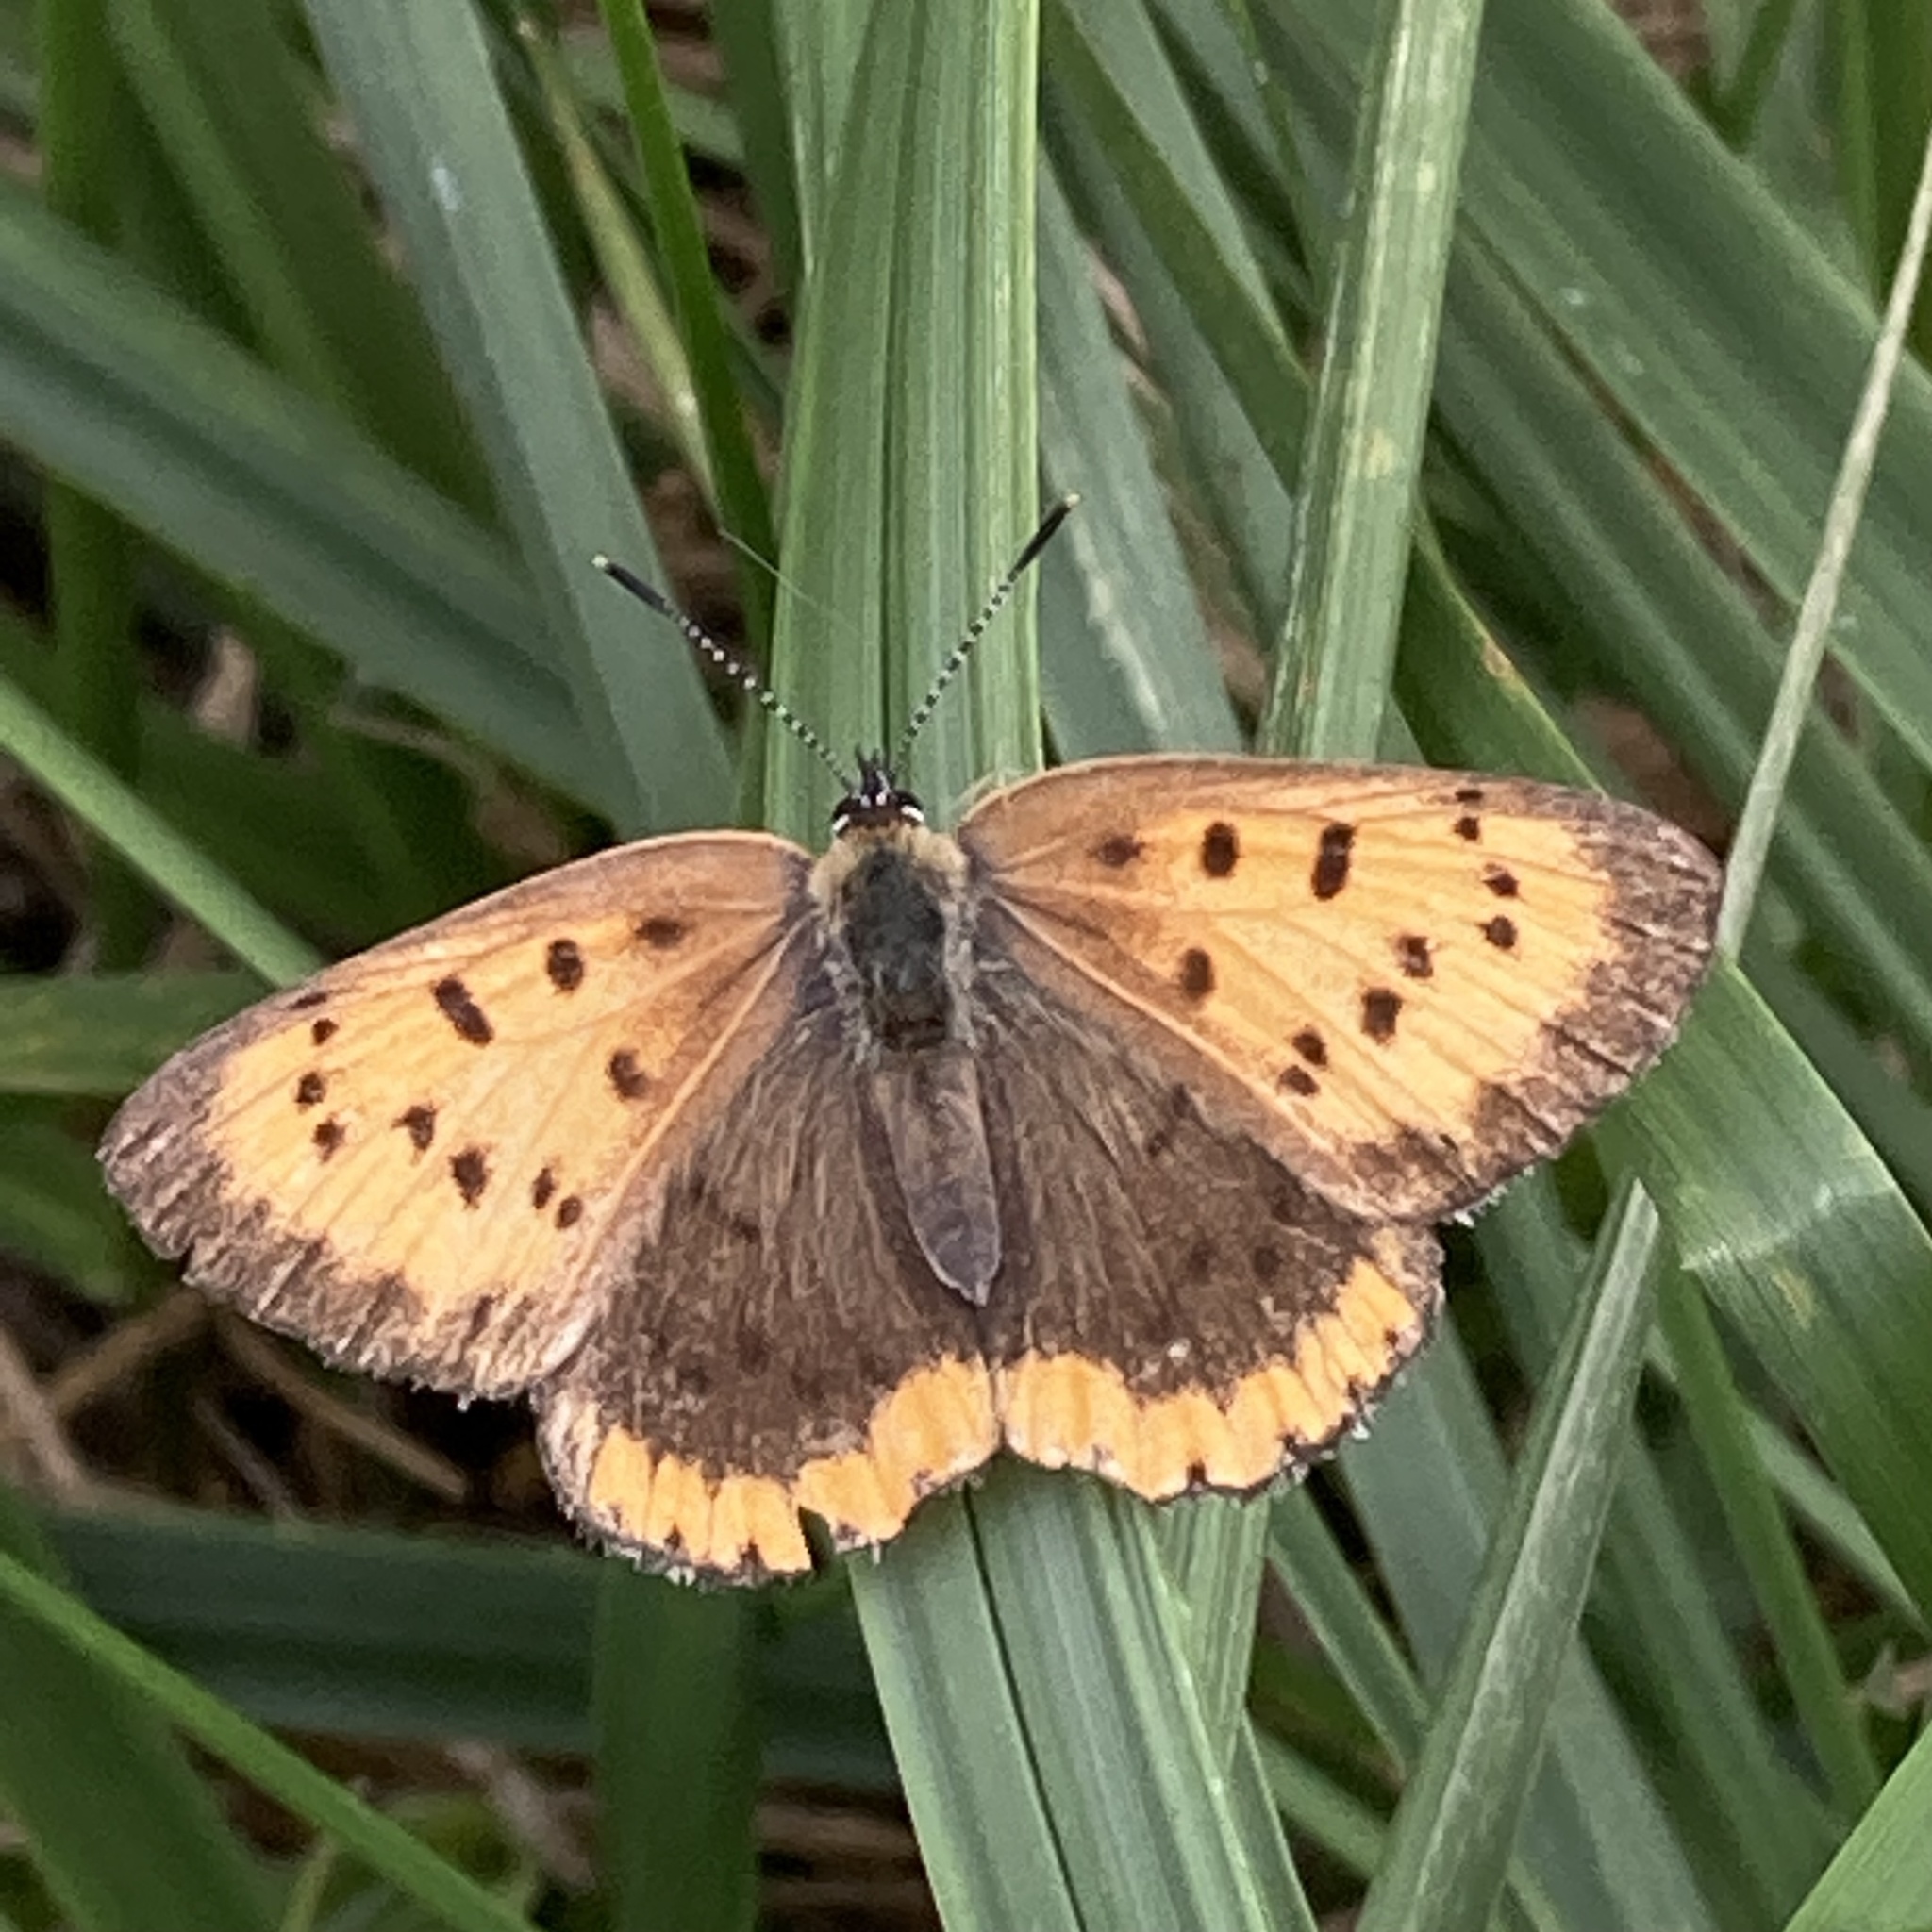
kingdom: Animalia
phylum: Arthropoda
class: Insecta
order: Lepidoptera
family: Lycaenidae
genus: Tharsalea
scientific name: Tharsalea hyllus
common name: Bronze copper
